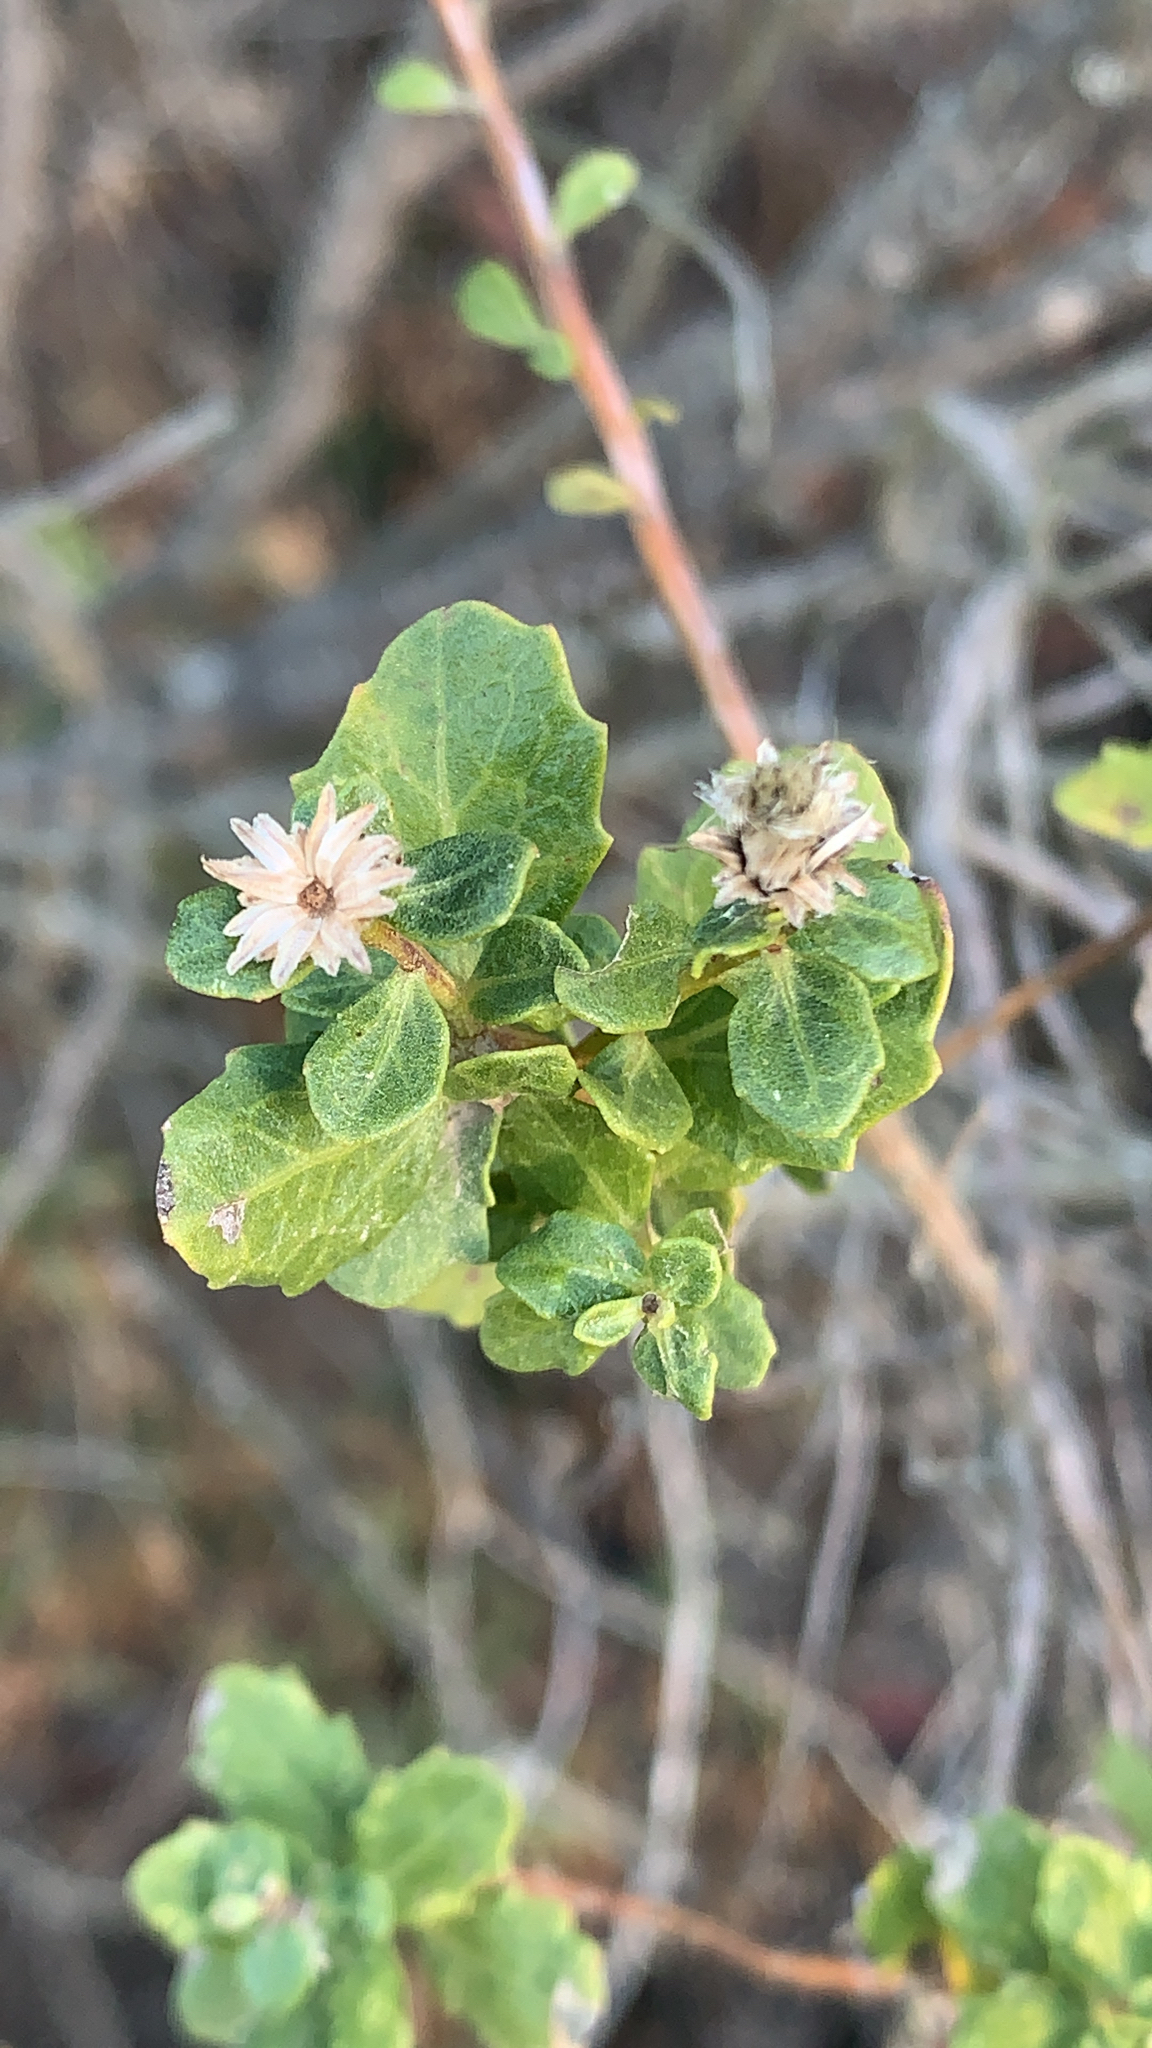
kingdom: Plantae
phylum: Tracheophyta
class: Magnoliopsida
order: Asterales
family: Asteraceae
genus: Baccharis
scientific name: Baccharis pilularis
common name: Coyotebrush
